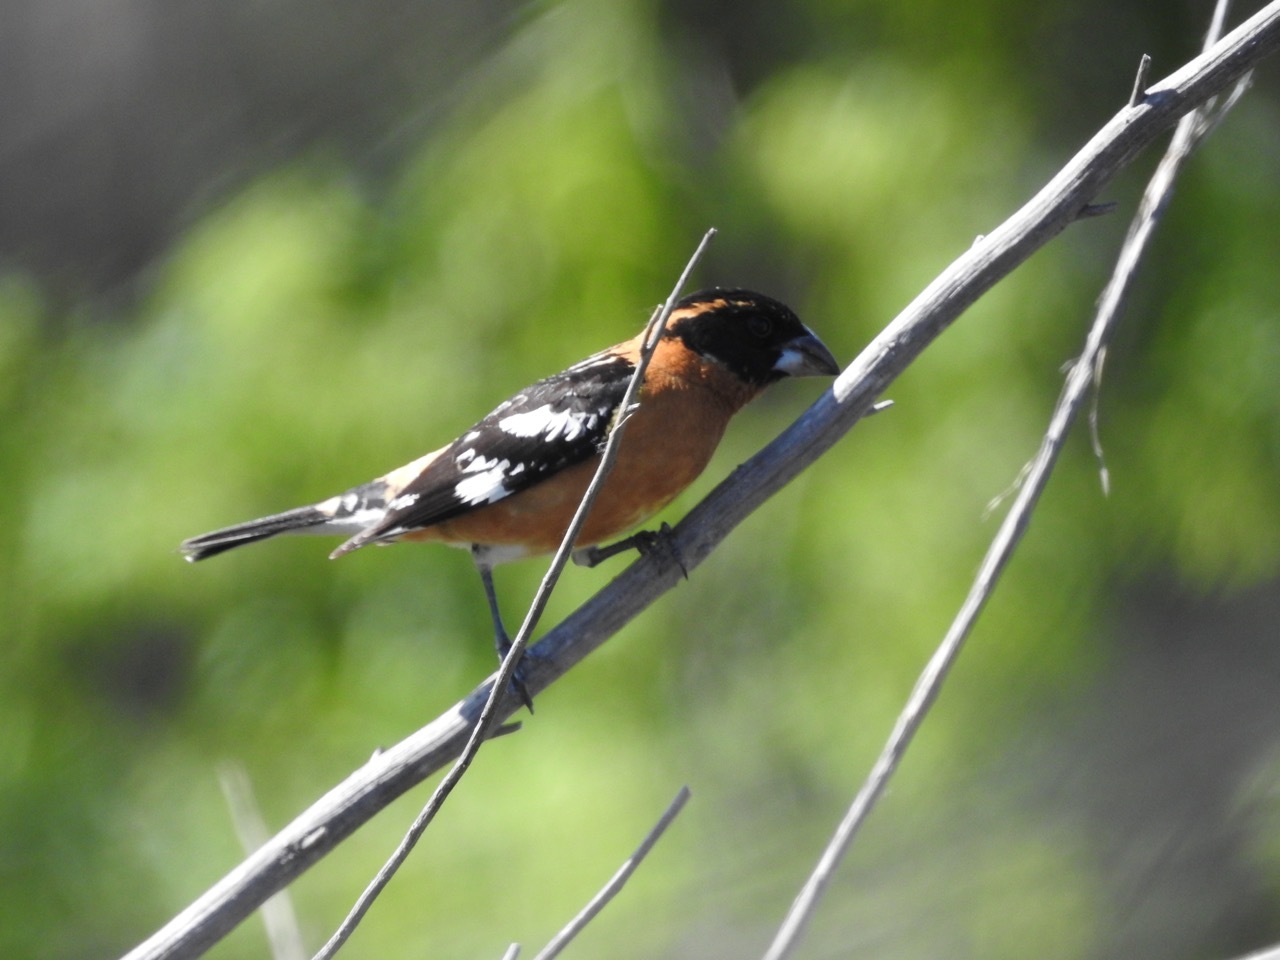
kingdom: Animalia
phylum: Chordata
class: Aves
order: Passeriformes
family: Cardinalidae
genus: Pheucticus
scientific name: Pheucticus melanocephalus
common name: Black-headed grosbeak
